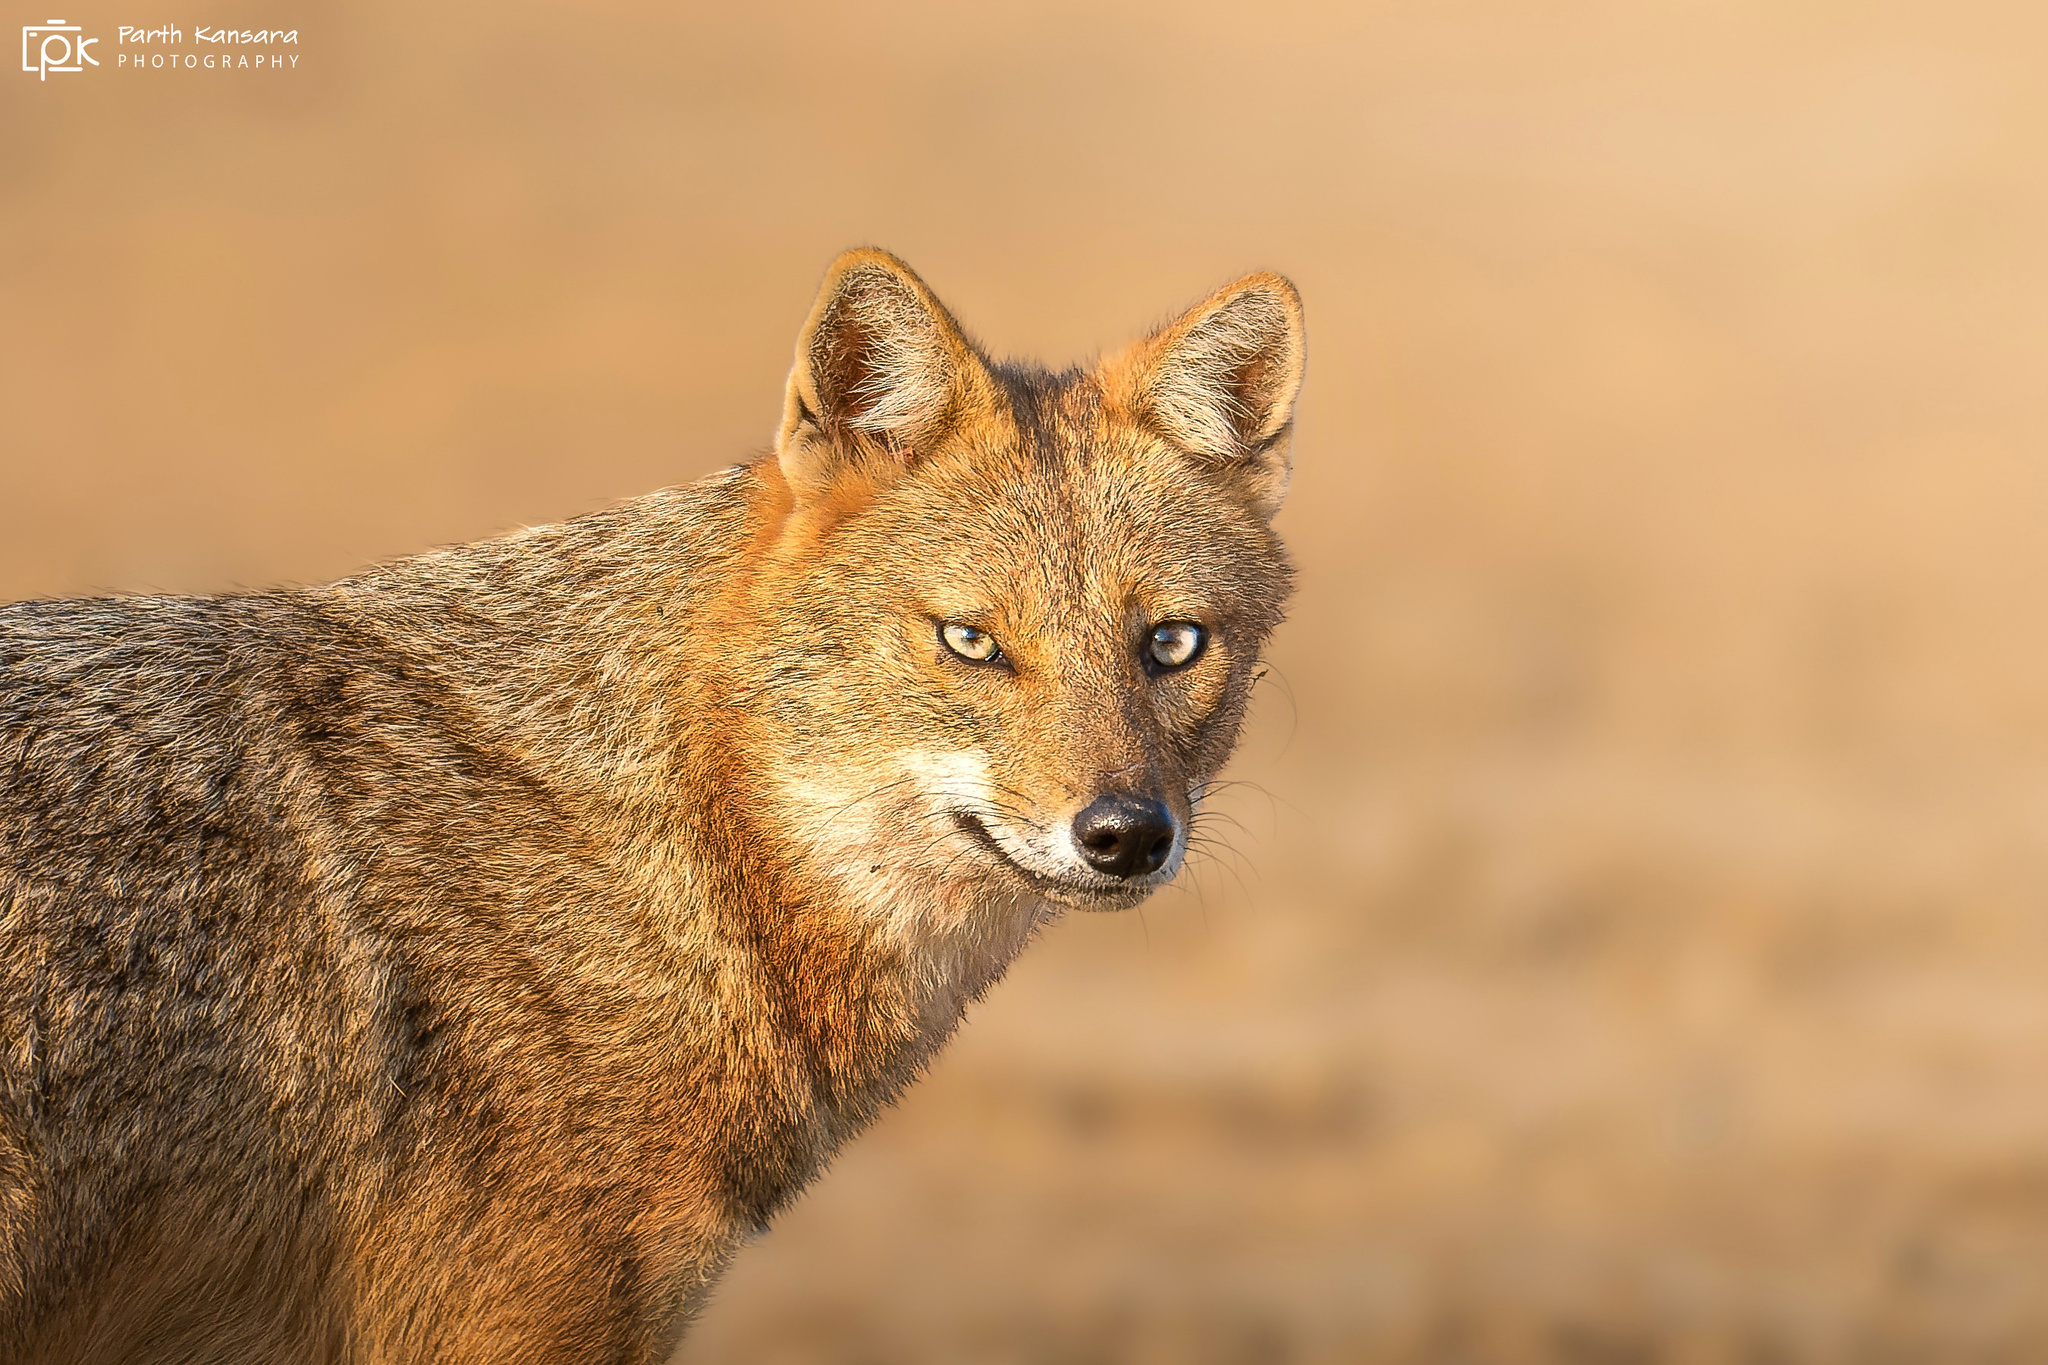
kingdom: Animalia
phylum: Chordata
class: Mammalia
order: Carnivora
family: Canidae
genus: Canis
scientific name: Canis aureus
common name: Golden jackal
